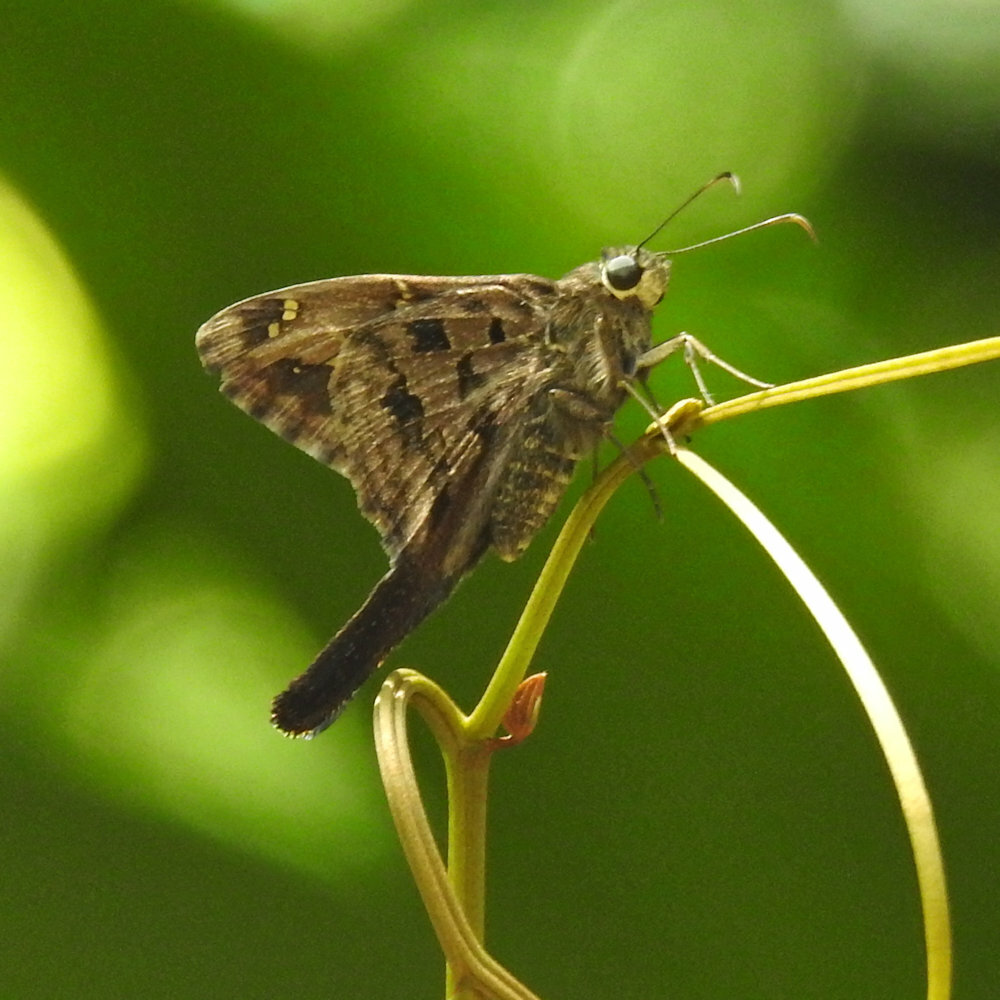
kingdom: Animalia
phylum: Arthropoda
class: Insecta
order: Lepidoptera
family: Hesperiidae
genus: Thorybes
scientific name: Thorybes
